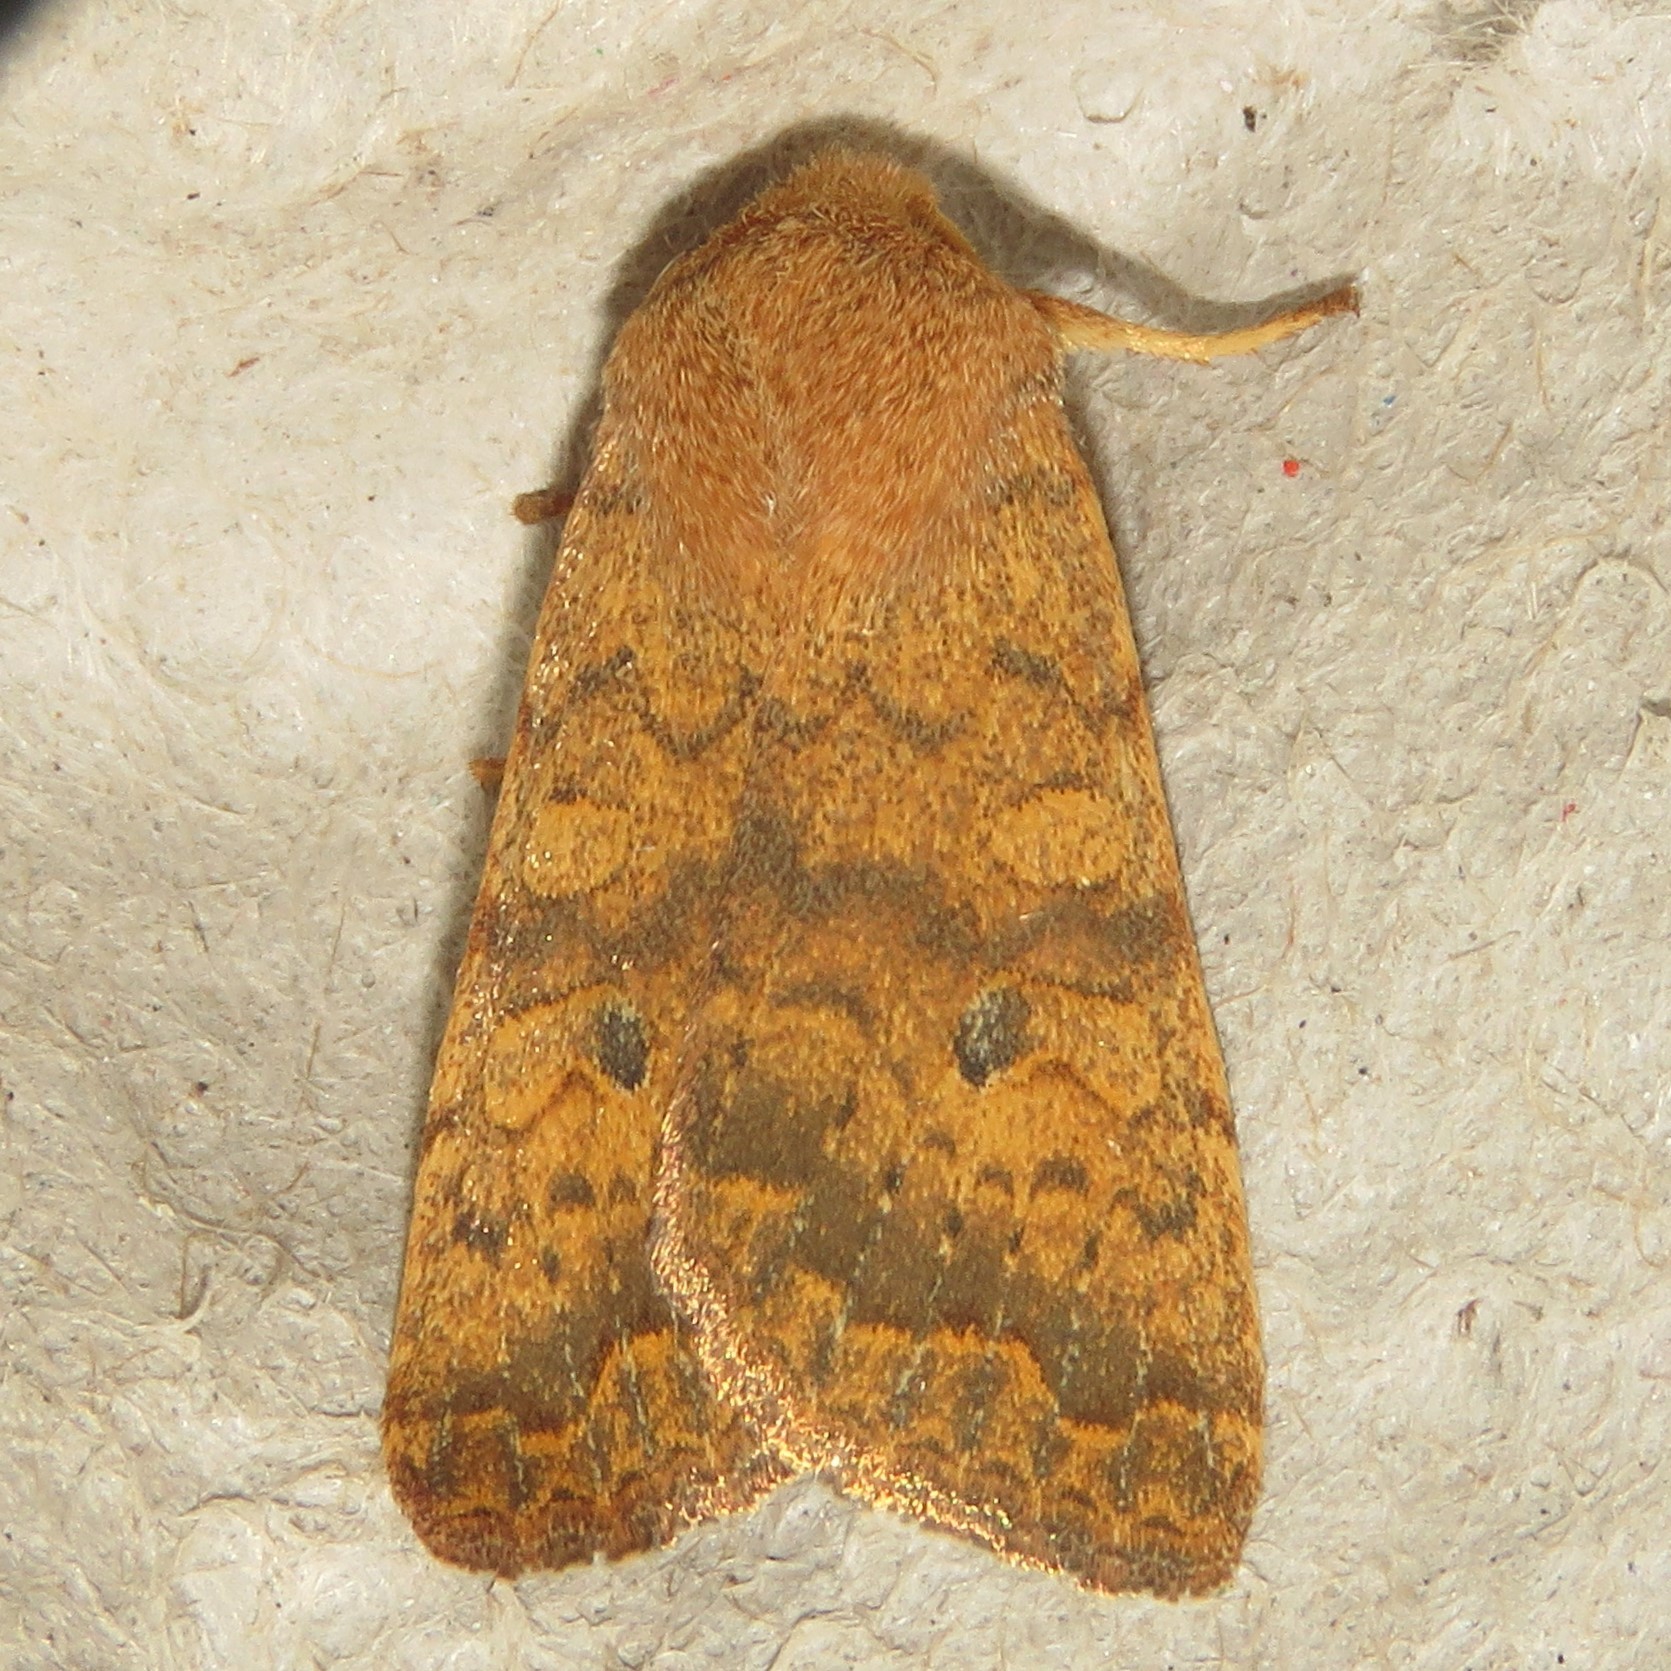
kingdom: Animalia
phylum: Arthropoda
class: Insecta
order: Lepidoptera
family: Noctuidae
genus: Agrochola
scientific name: Agrochola bicolorago
